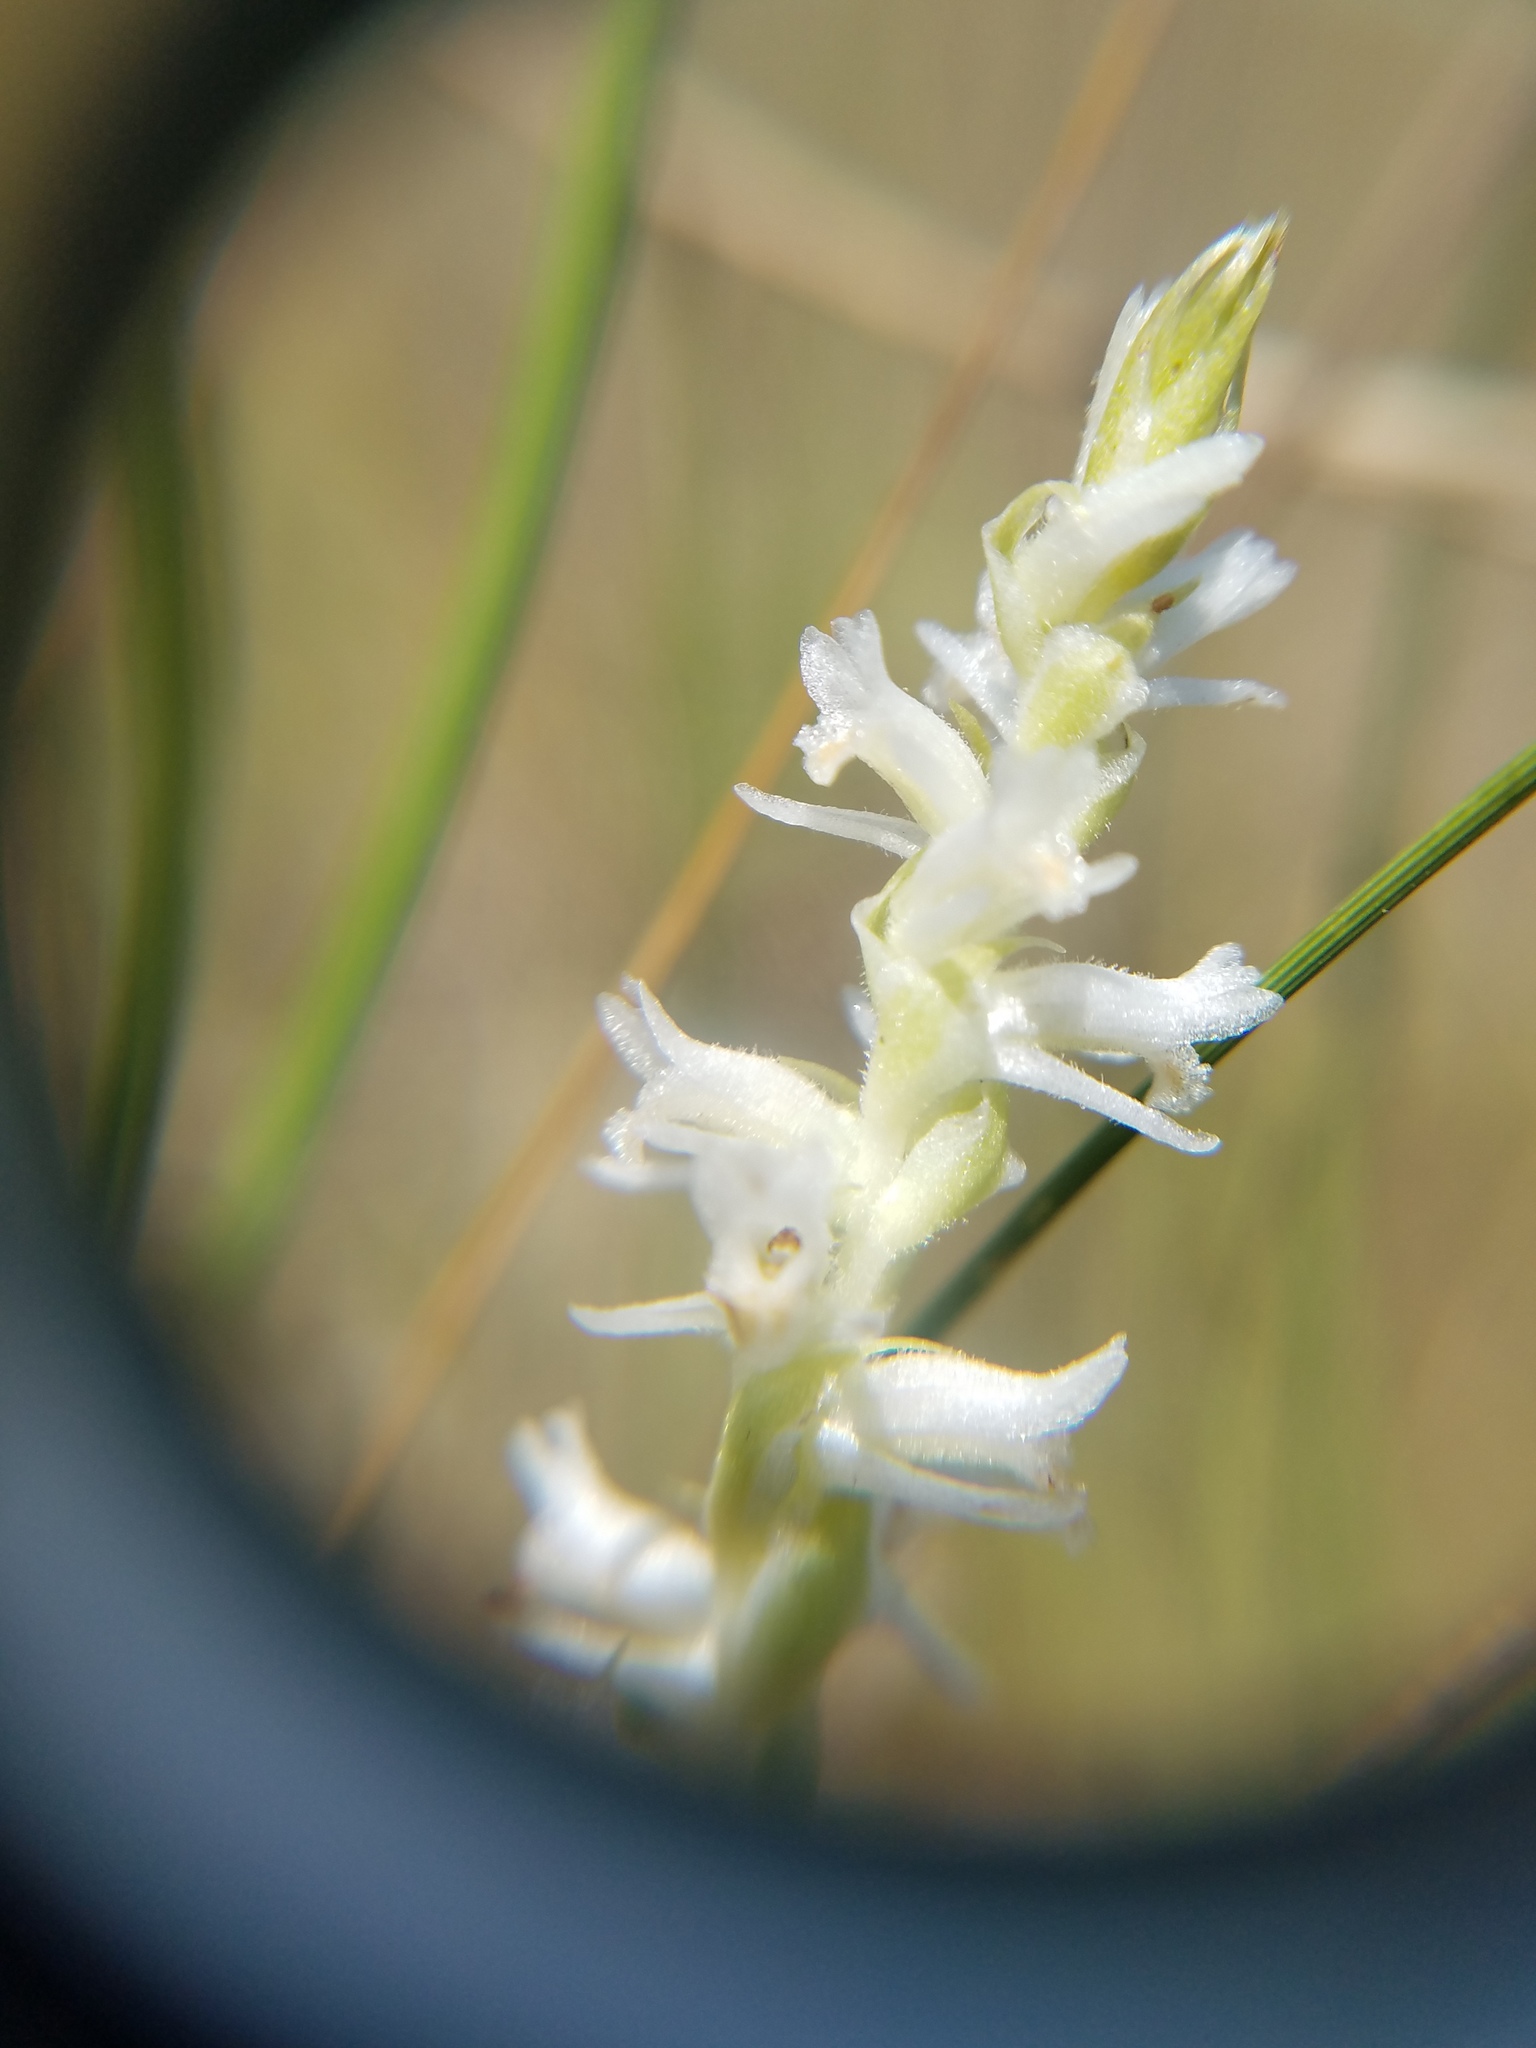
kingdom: Plantae
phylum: Tracheophyta
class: Liliopsida
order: Asparagales
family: Orchidaceae
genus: Spiranthes
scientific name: Spiranthes vernalis
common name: Spring ladies'-tresses
